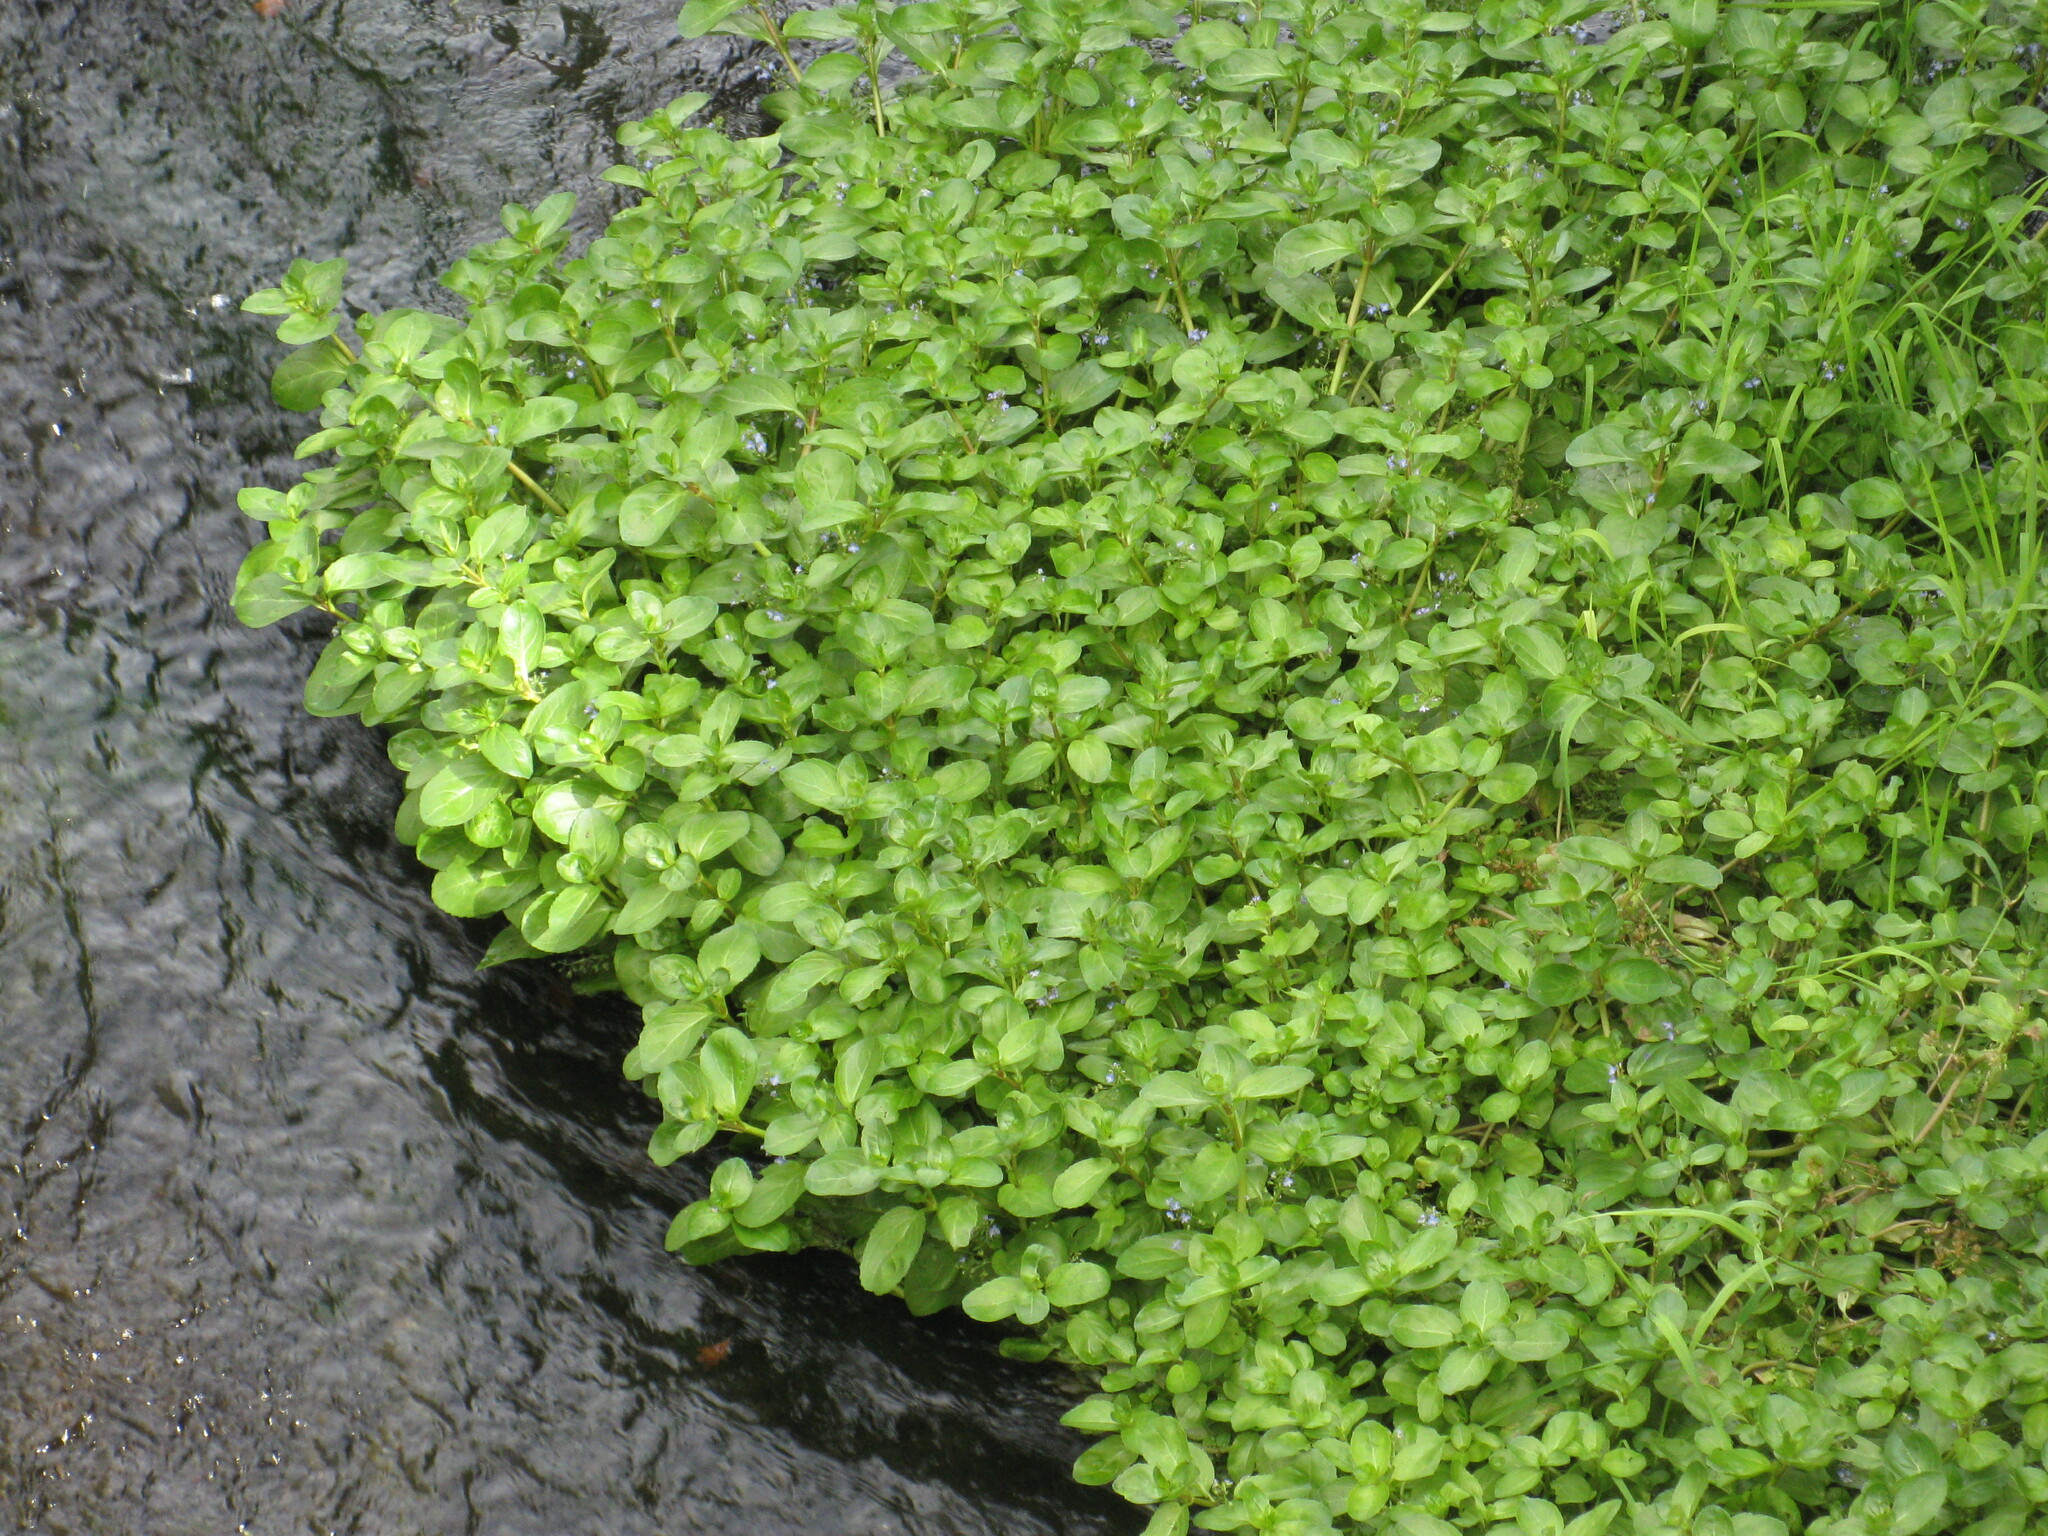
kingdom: Plantae
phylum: Tracheophyta
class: Magnoliopsida
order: Lamiales
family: Plantaginaceae
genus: Veronica
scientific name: Veronica beccabunga
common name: Brooklime
